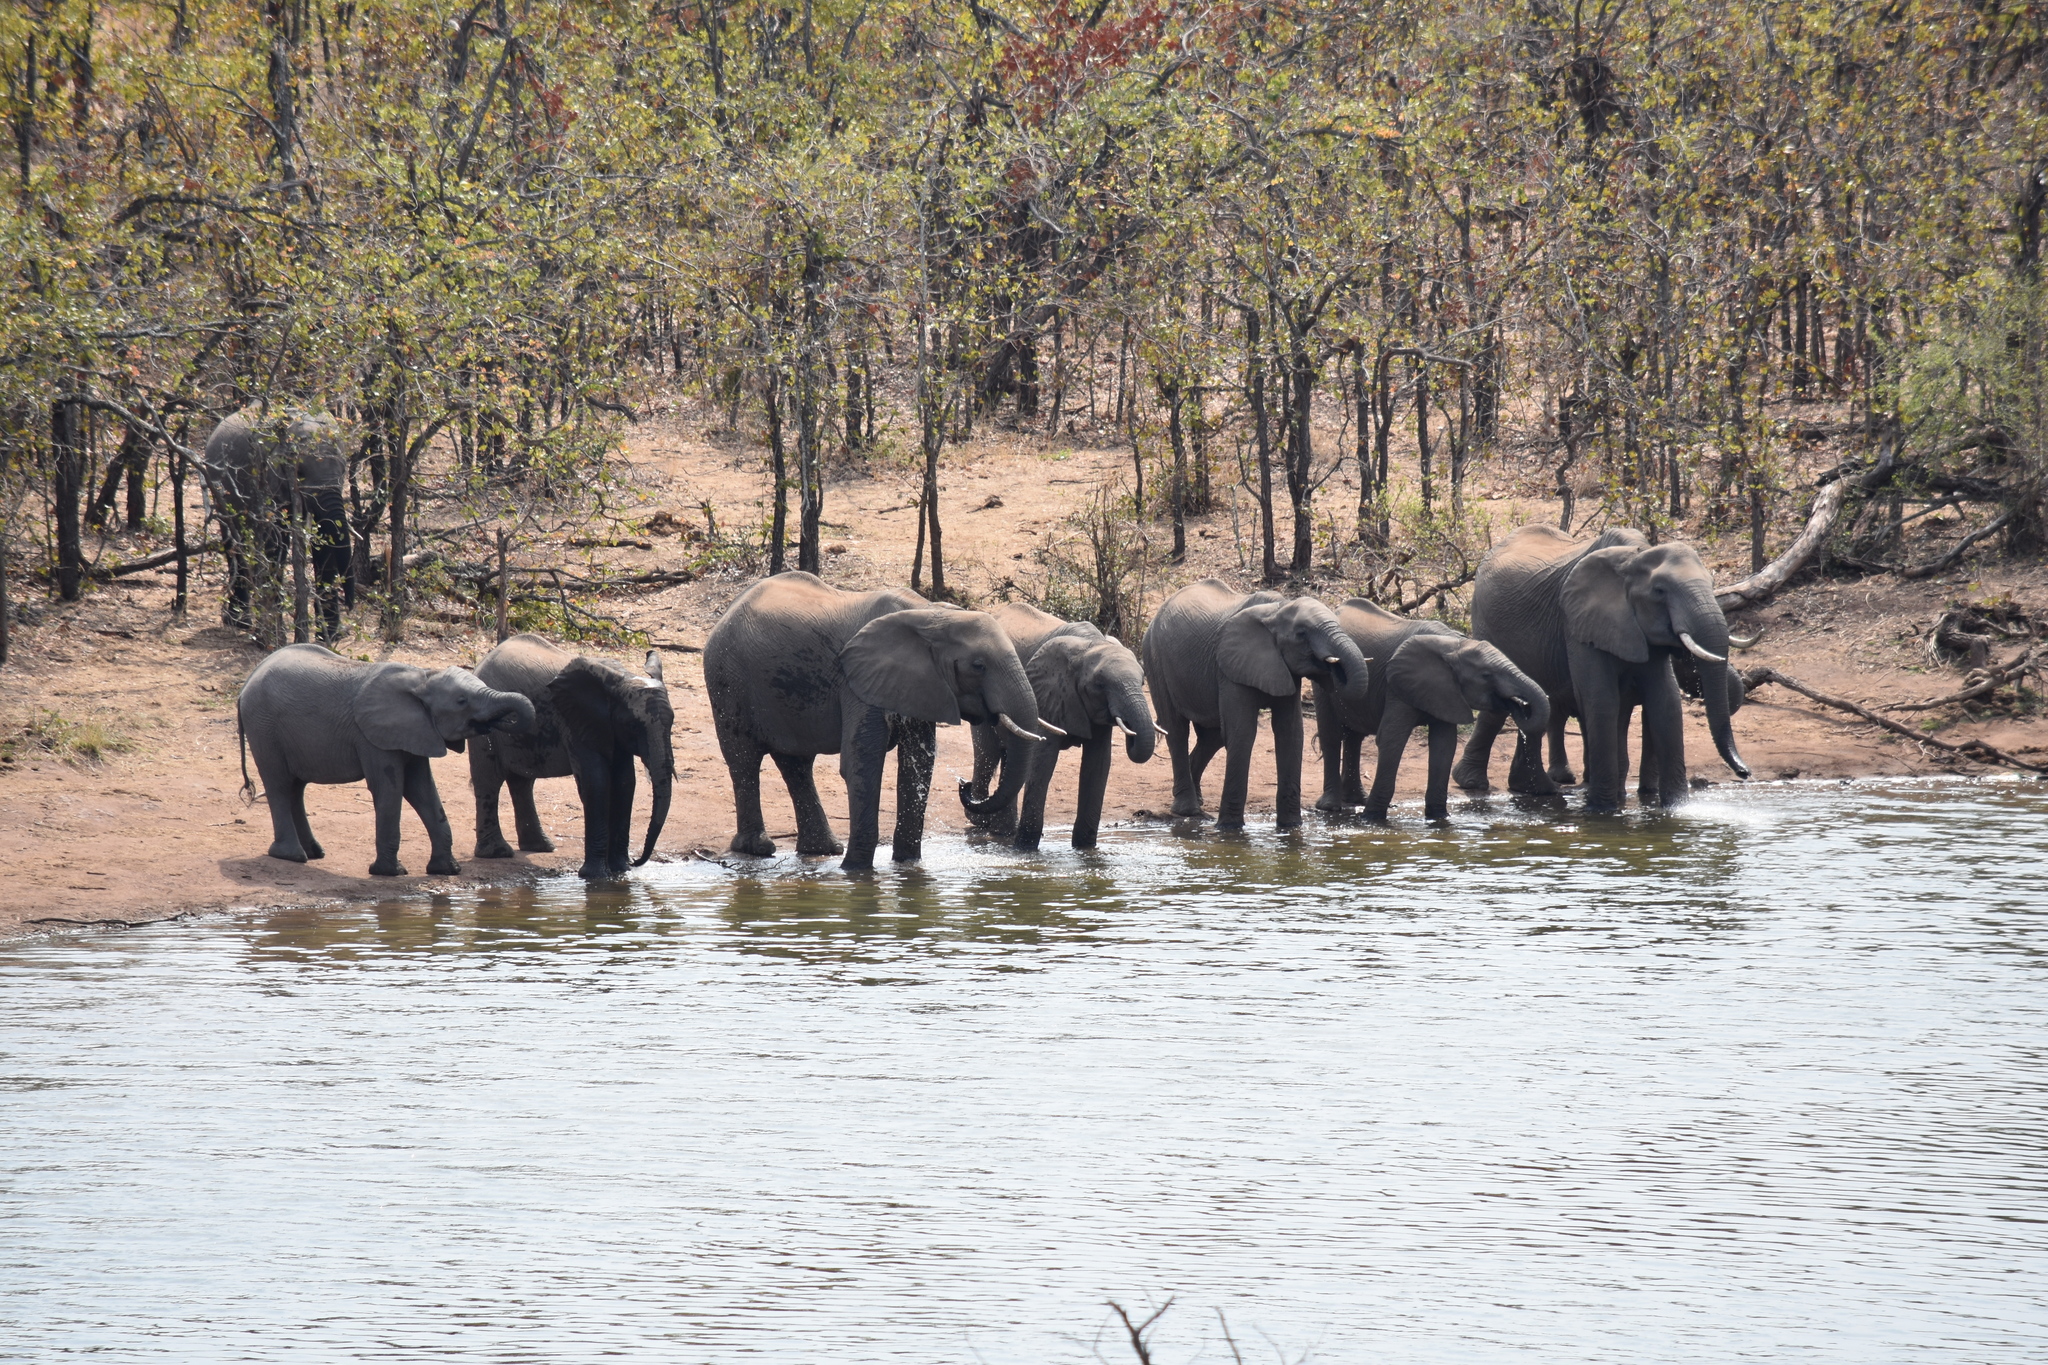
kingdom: Animalia
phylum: Chordata
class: Mammalia
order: Proboscidea
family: Elephantidae
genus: Loxodonta
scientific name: Loxodonta africana
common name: African elephant
